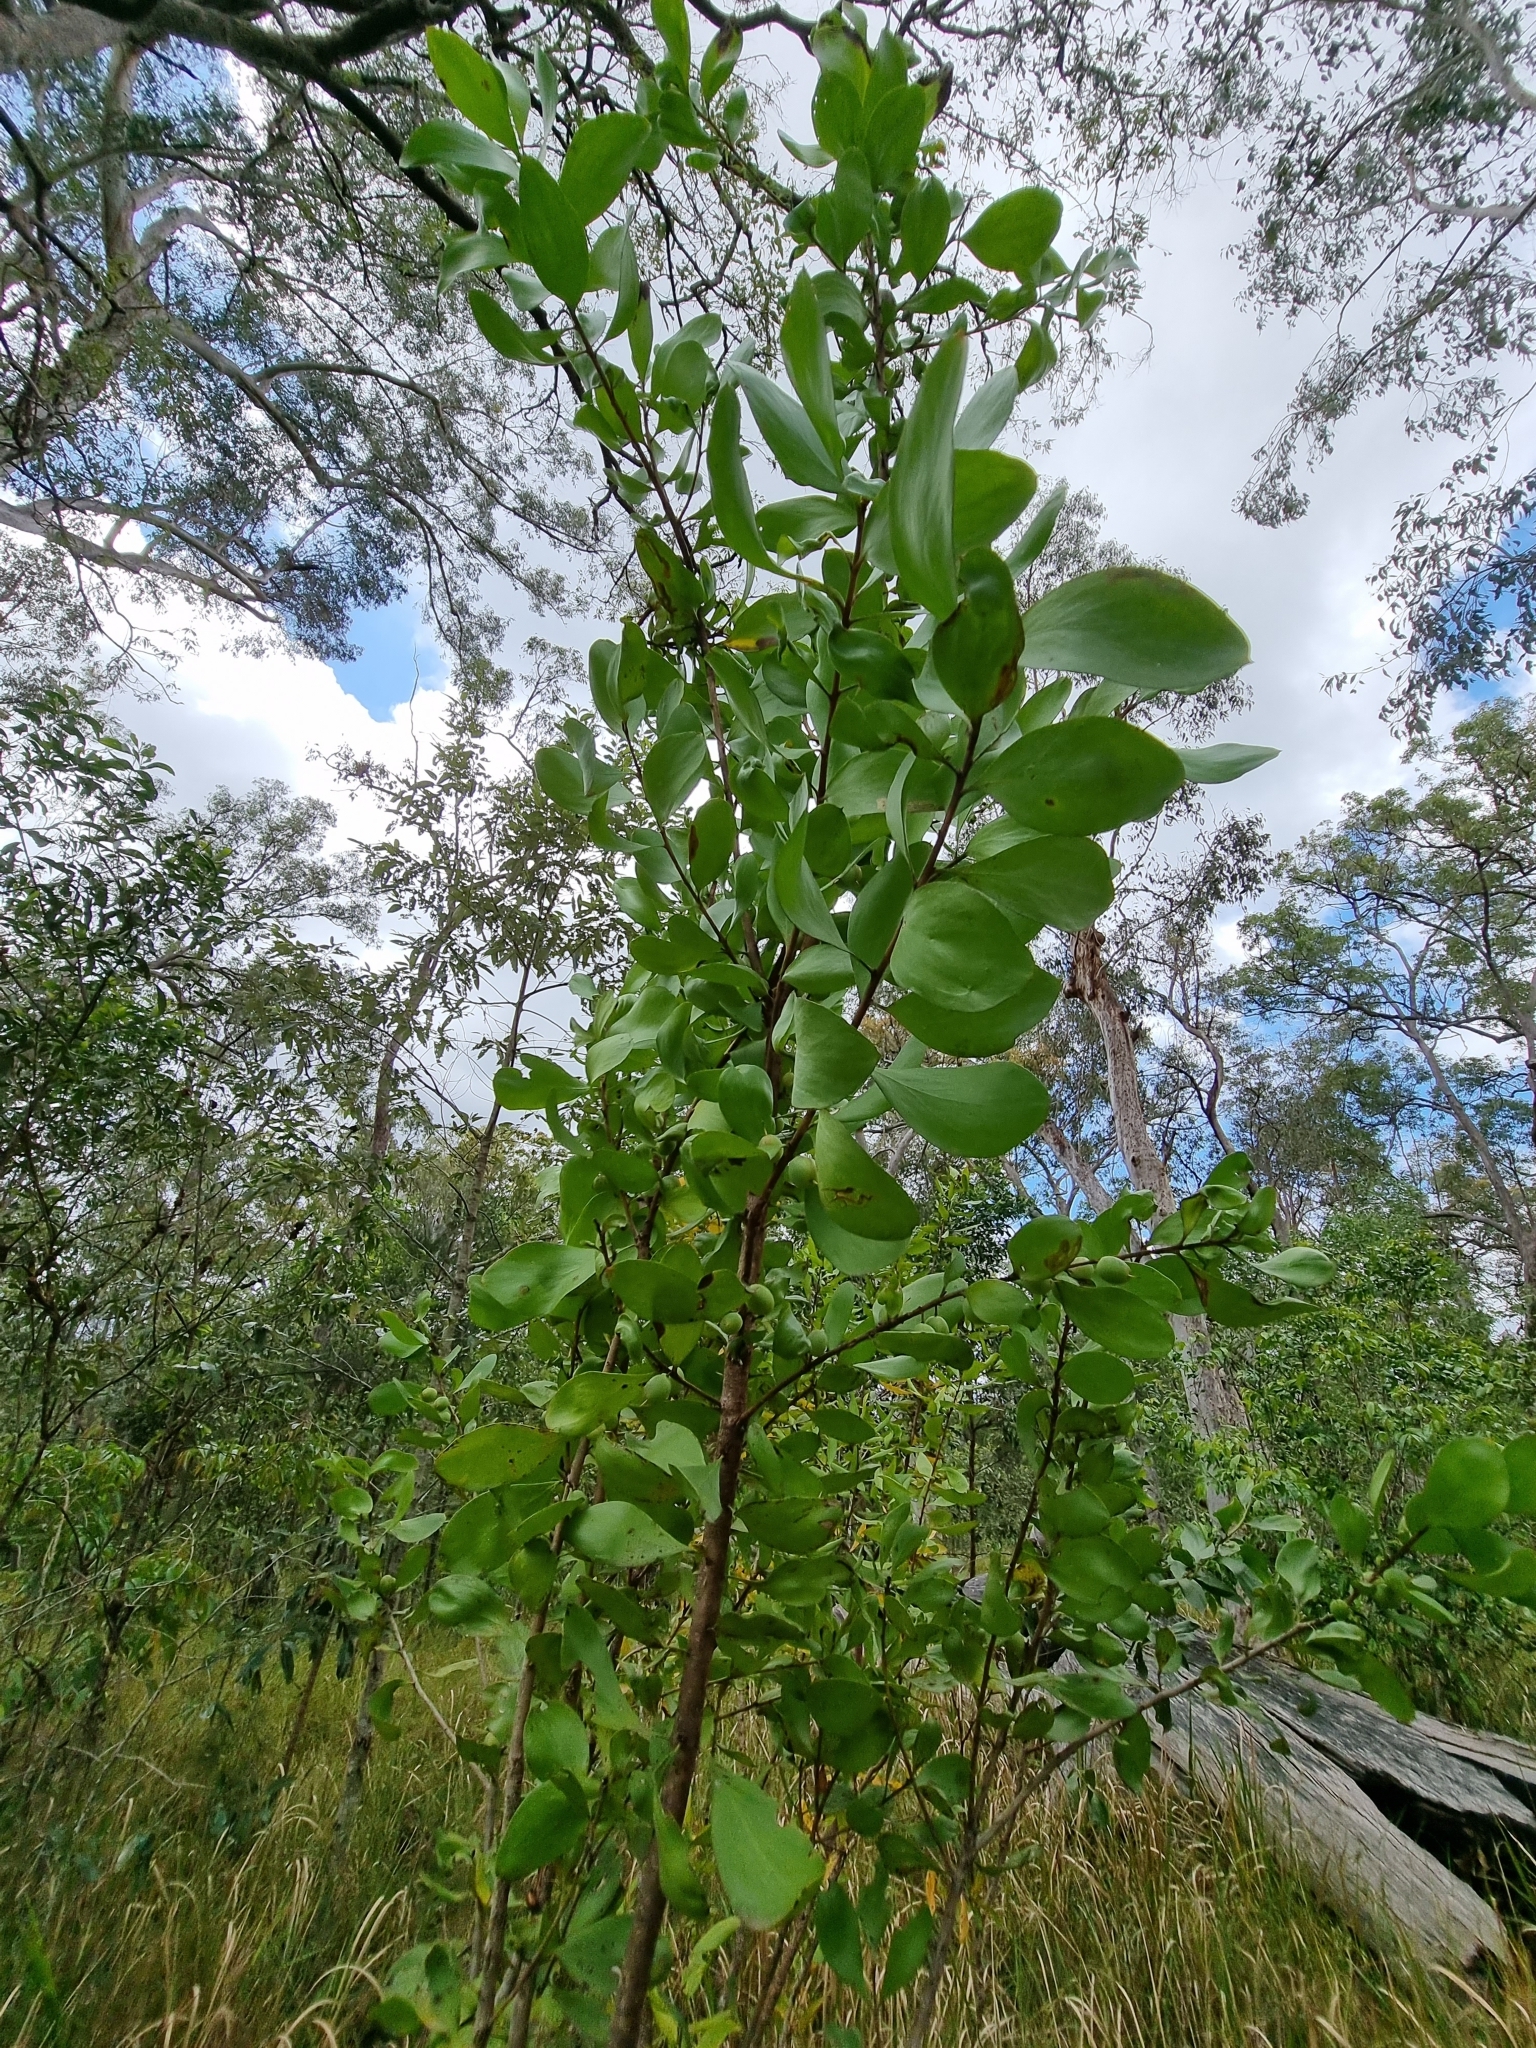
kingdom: Plantae
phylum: Tracheophyta
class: Magnoliopsida
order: Proteales
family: Proteaceae
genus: Persoonia
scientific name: Persoonia levis
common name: Smooth geebung
